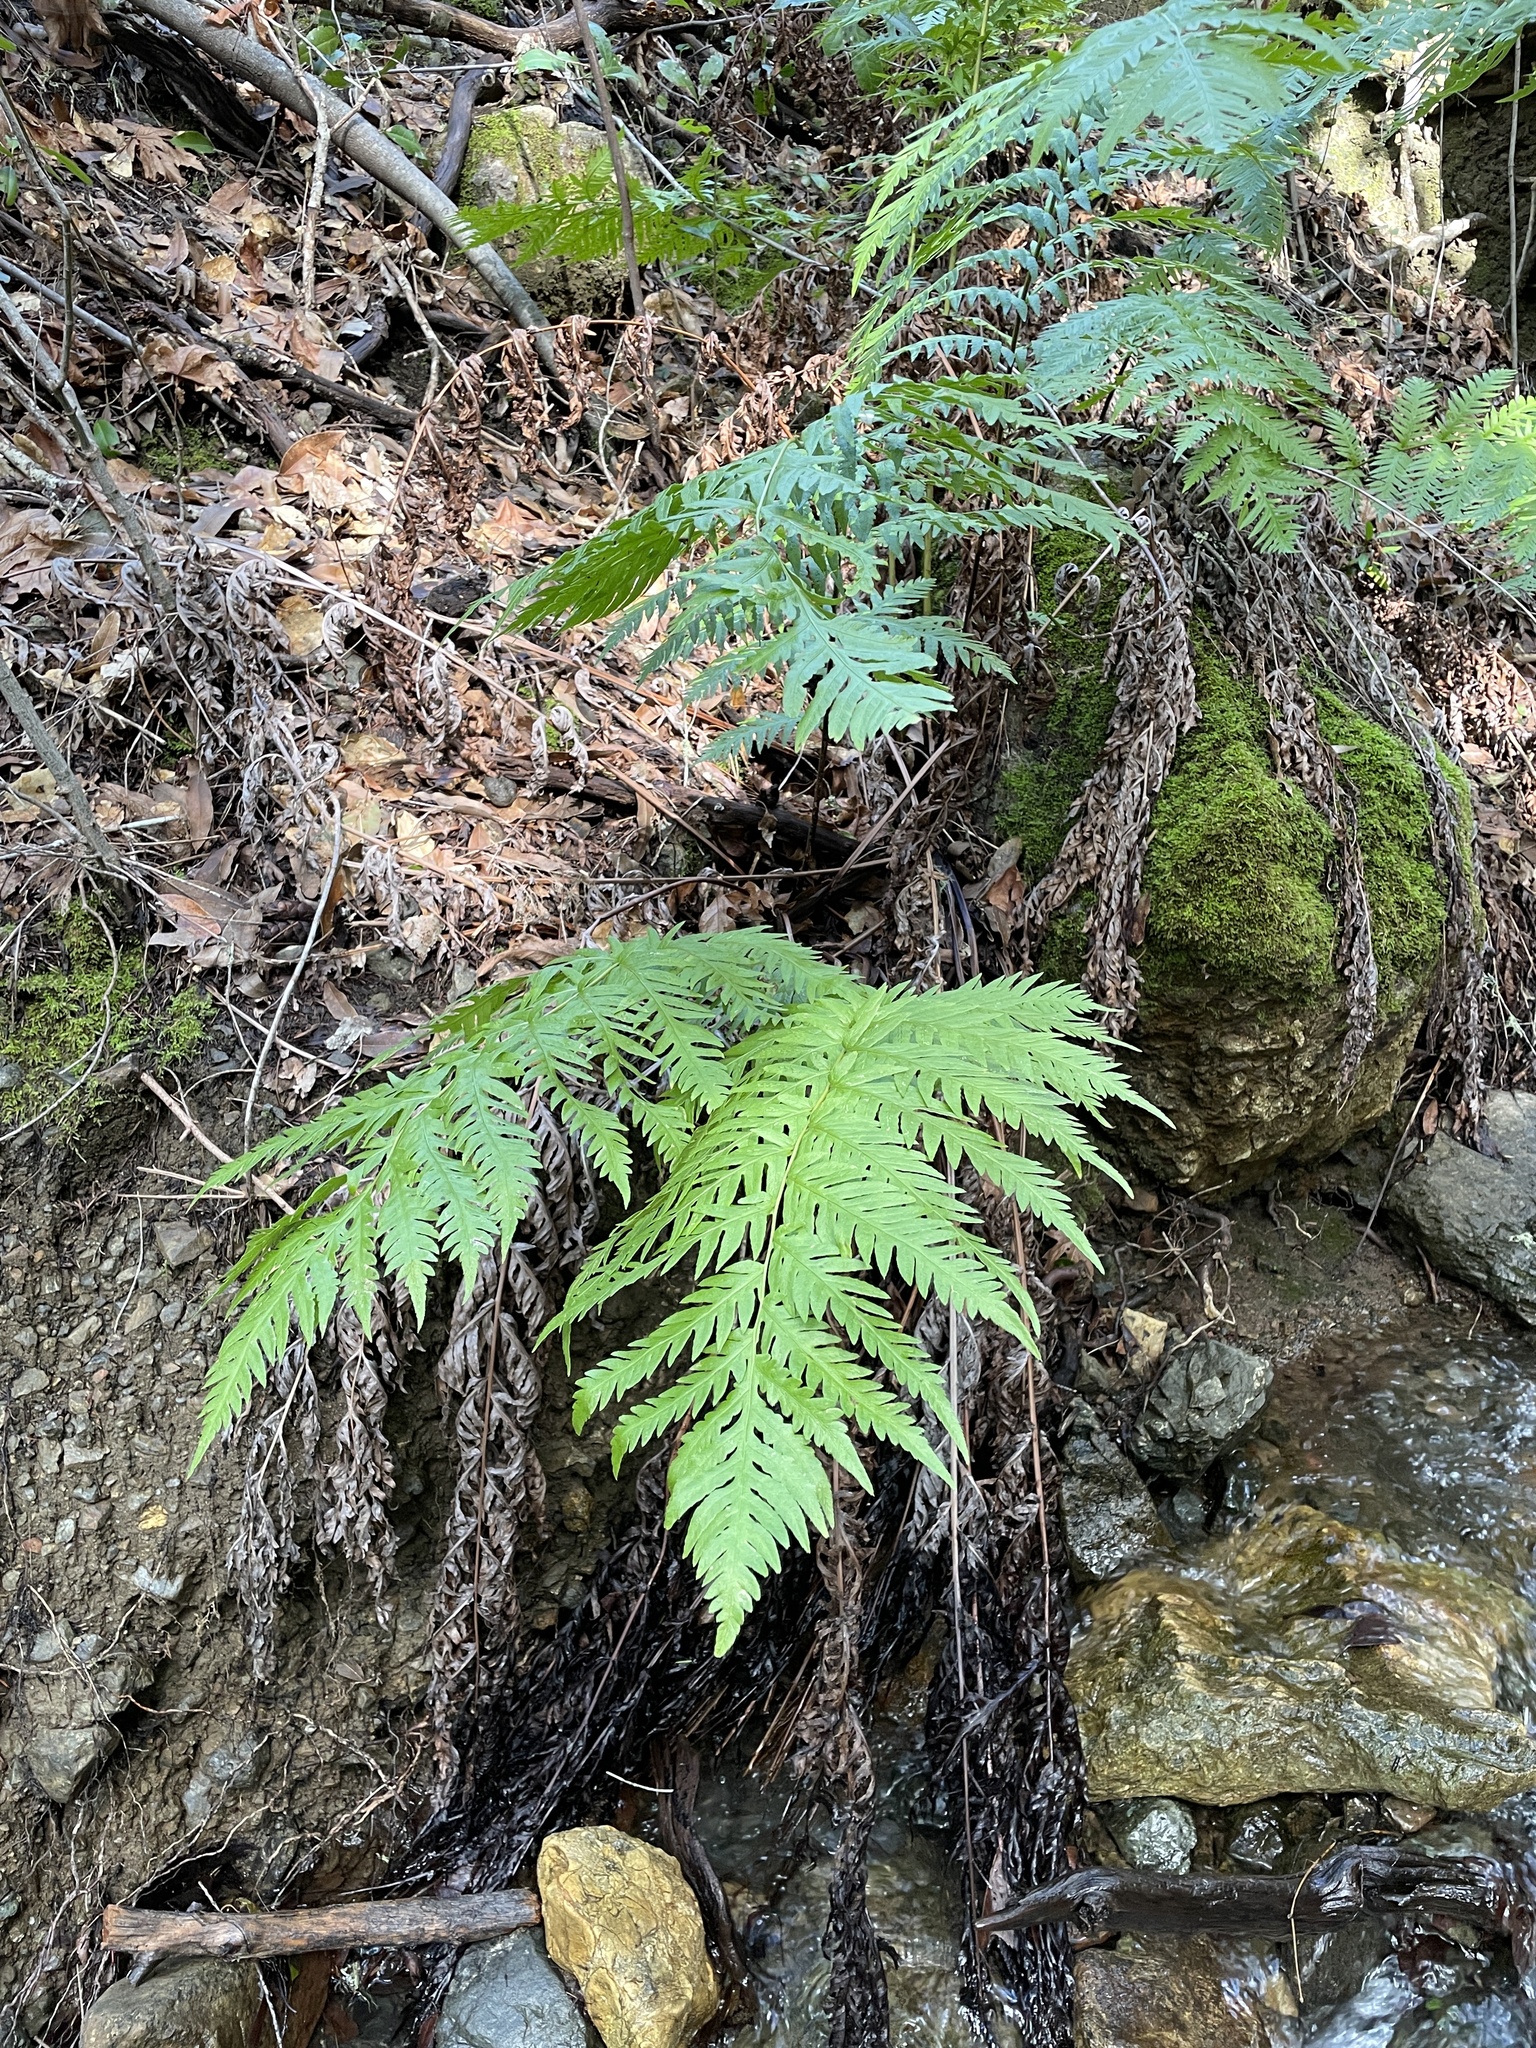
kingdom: Plantae
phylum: Tracheophyta
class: Polypodiopsida
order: Polypodiales
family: Blechnaceae
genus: Woodwardia
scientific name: Woodwardia fimbriata
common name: Giant chain fern
